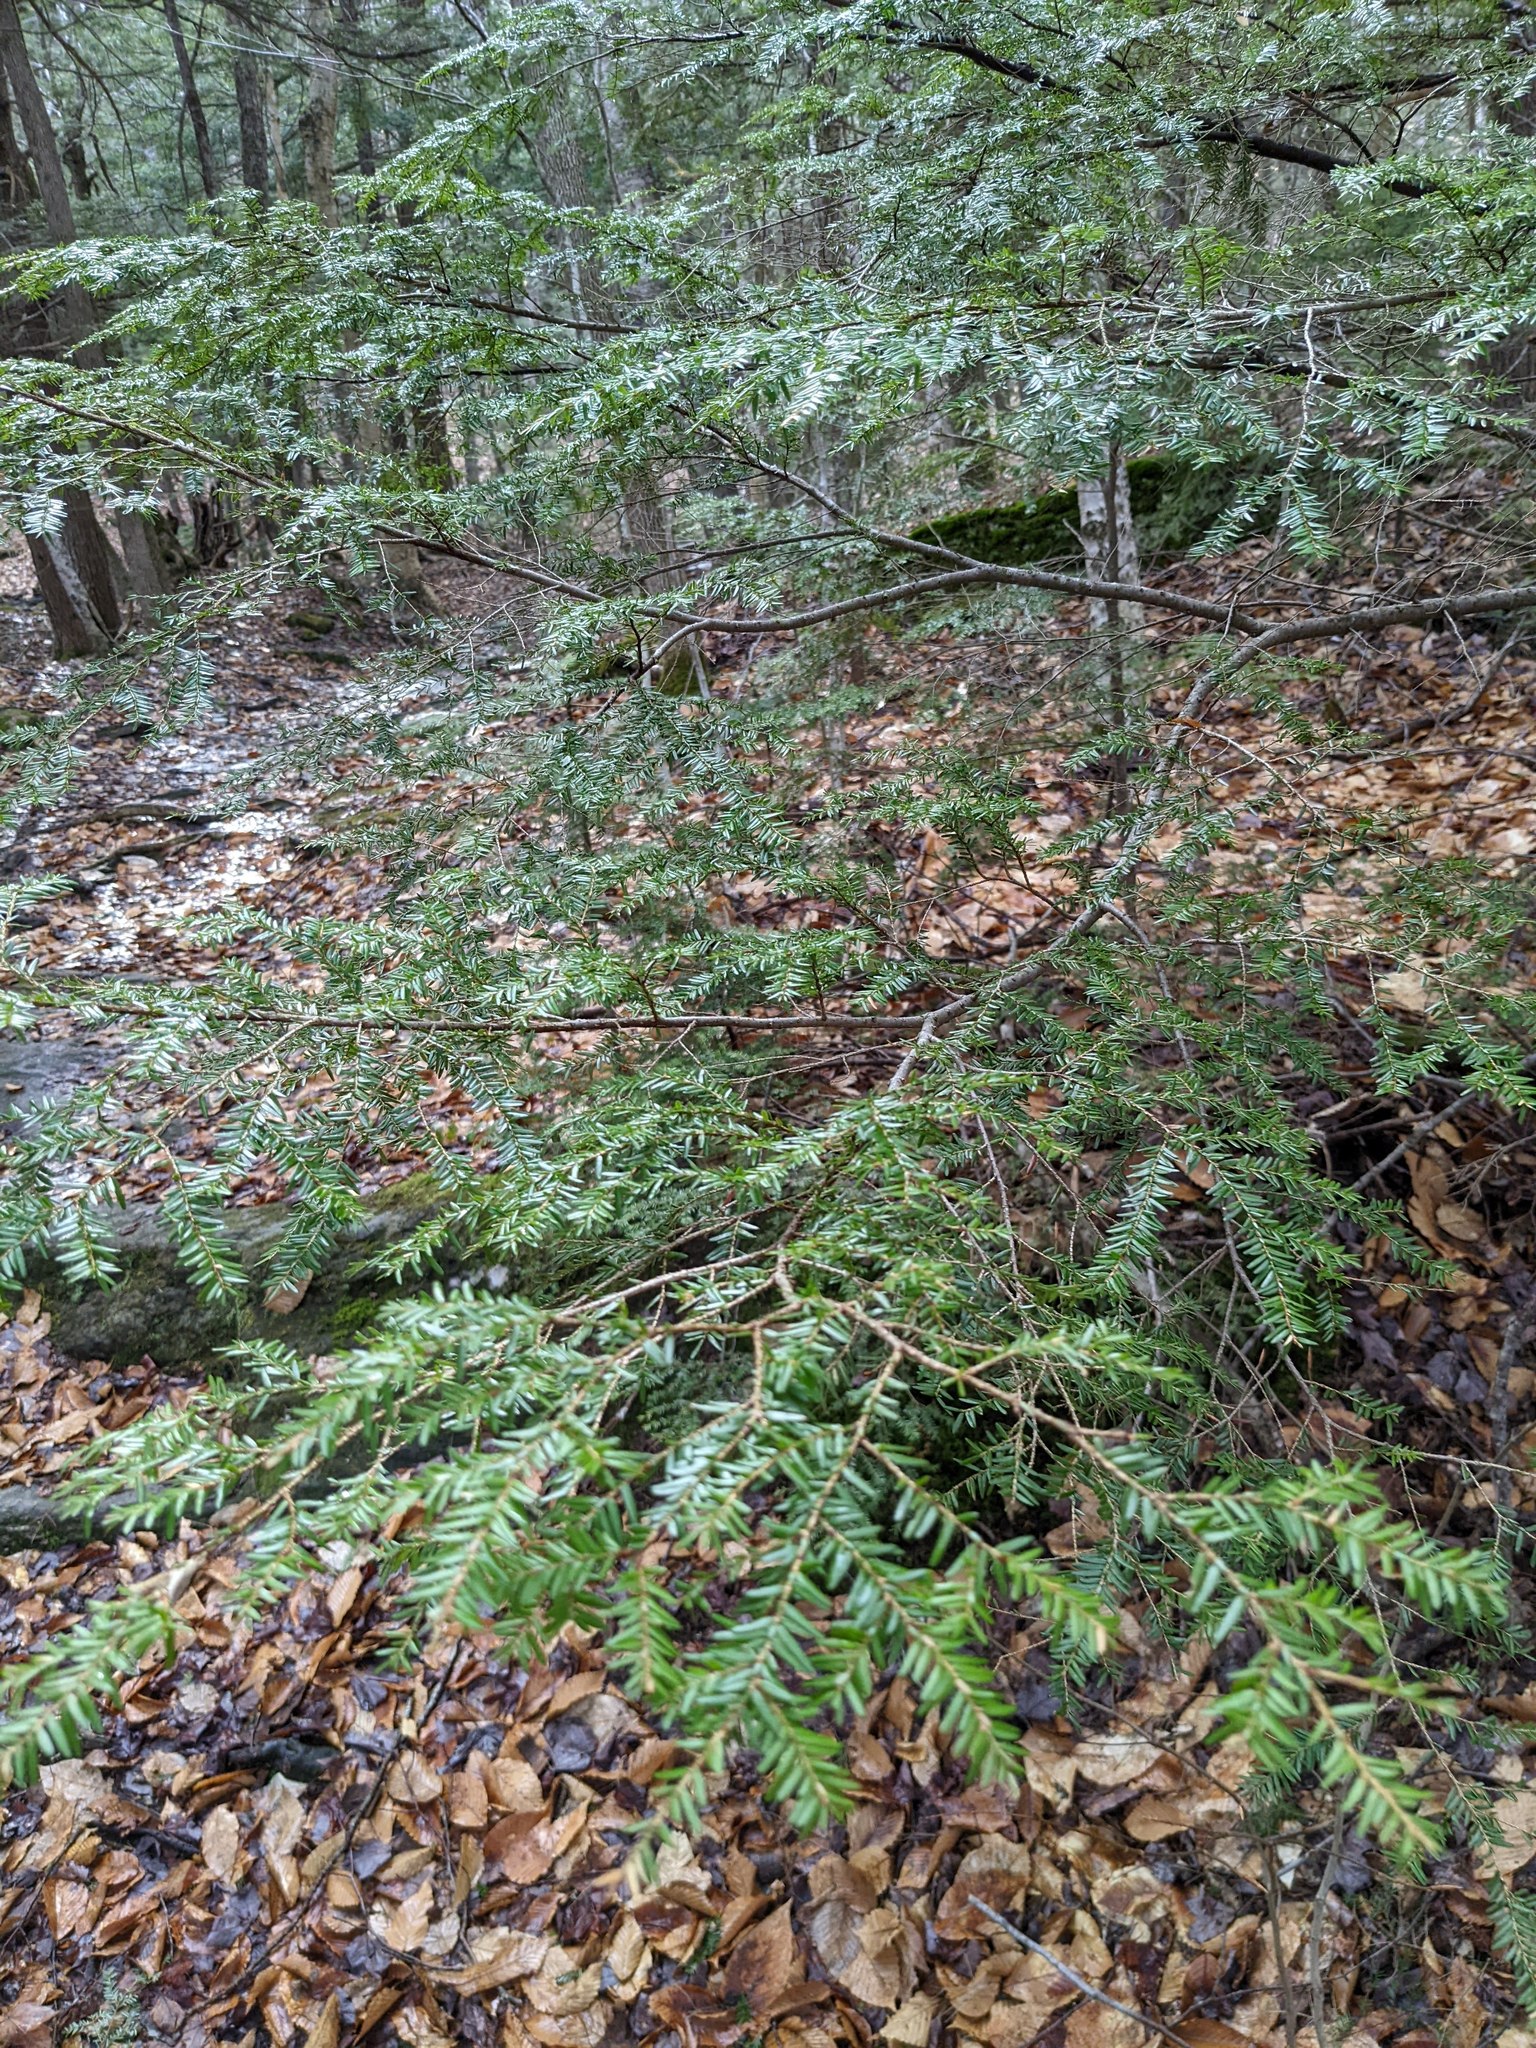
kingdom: Plantae
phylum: Tracheophyta
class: Pinopsida
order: Pinales
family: Pinaceae
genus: Tsuga
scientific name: Tsuga canadensis
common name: Eastern hemlock
